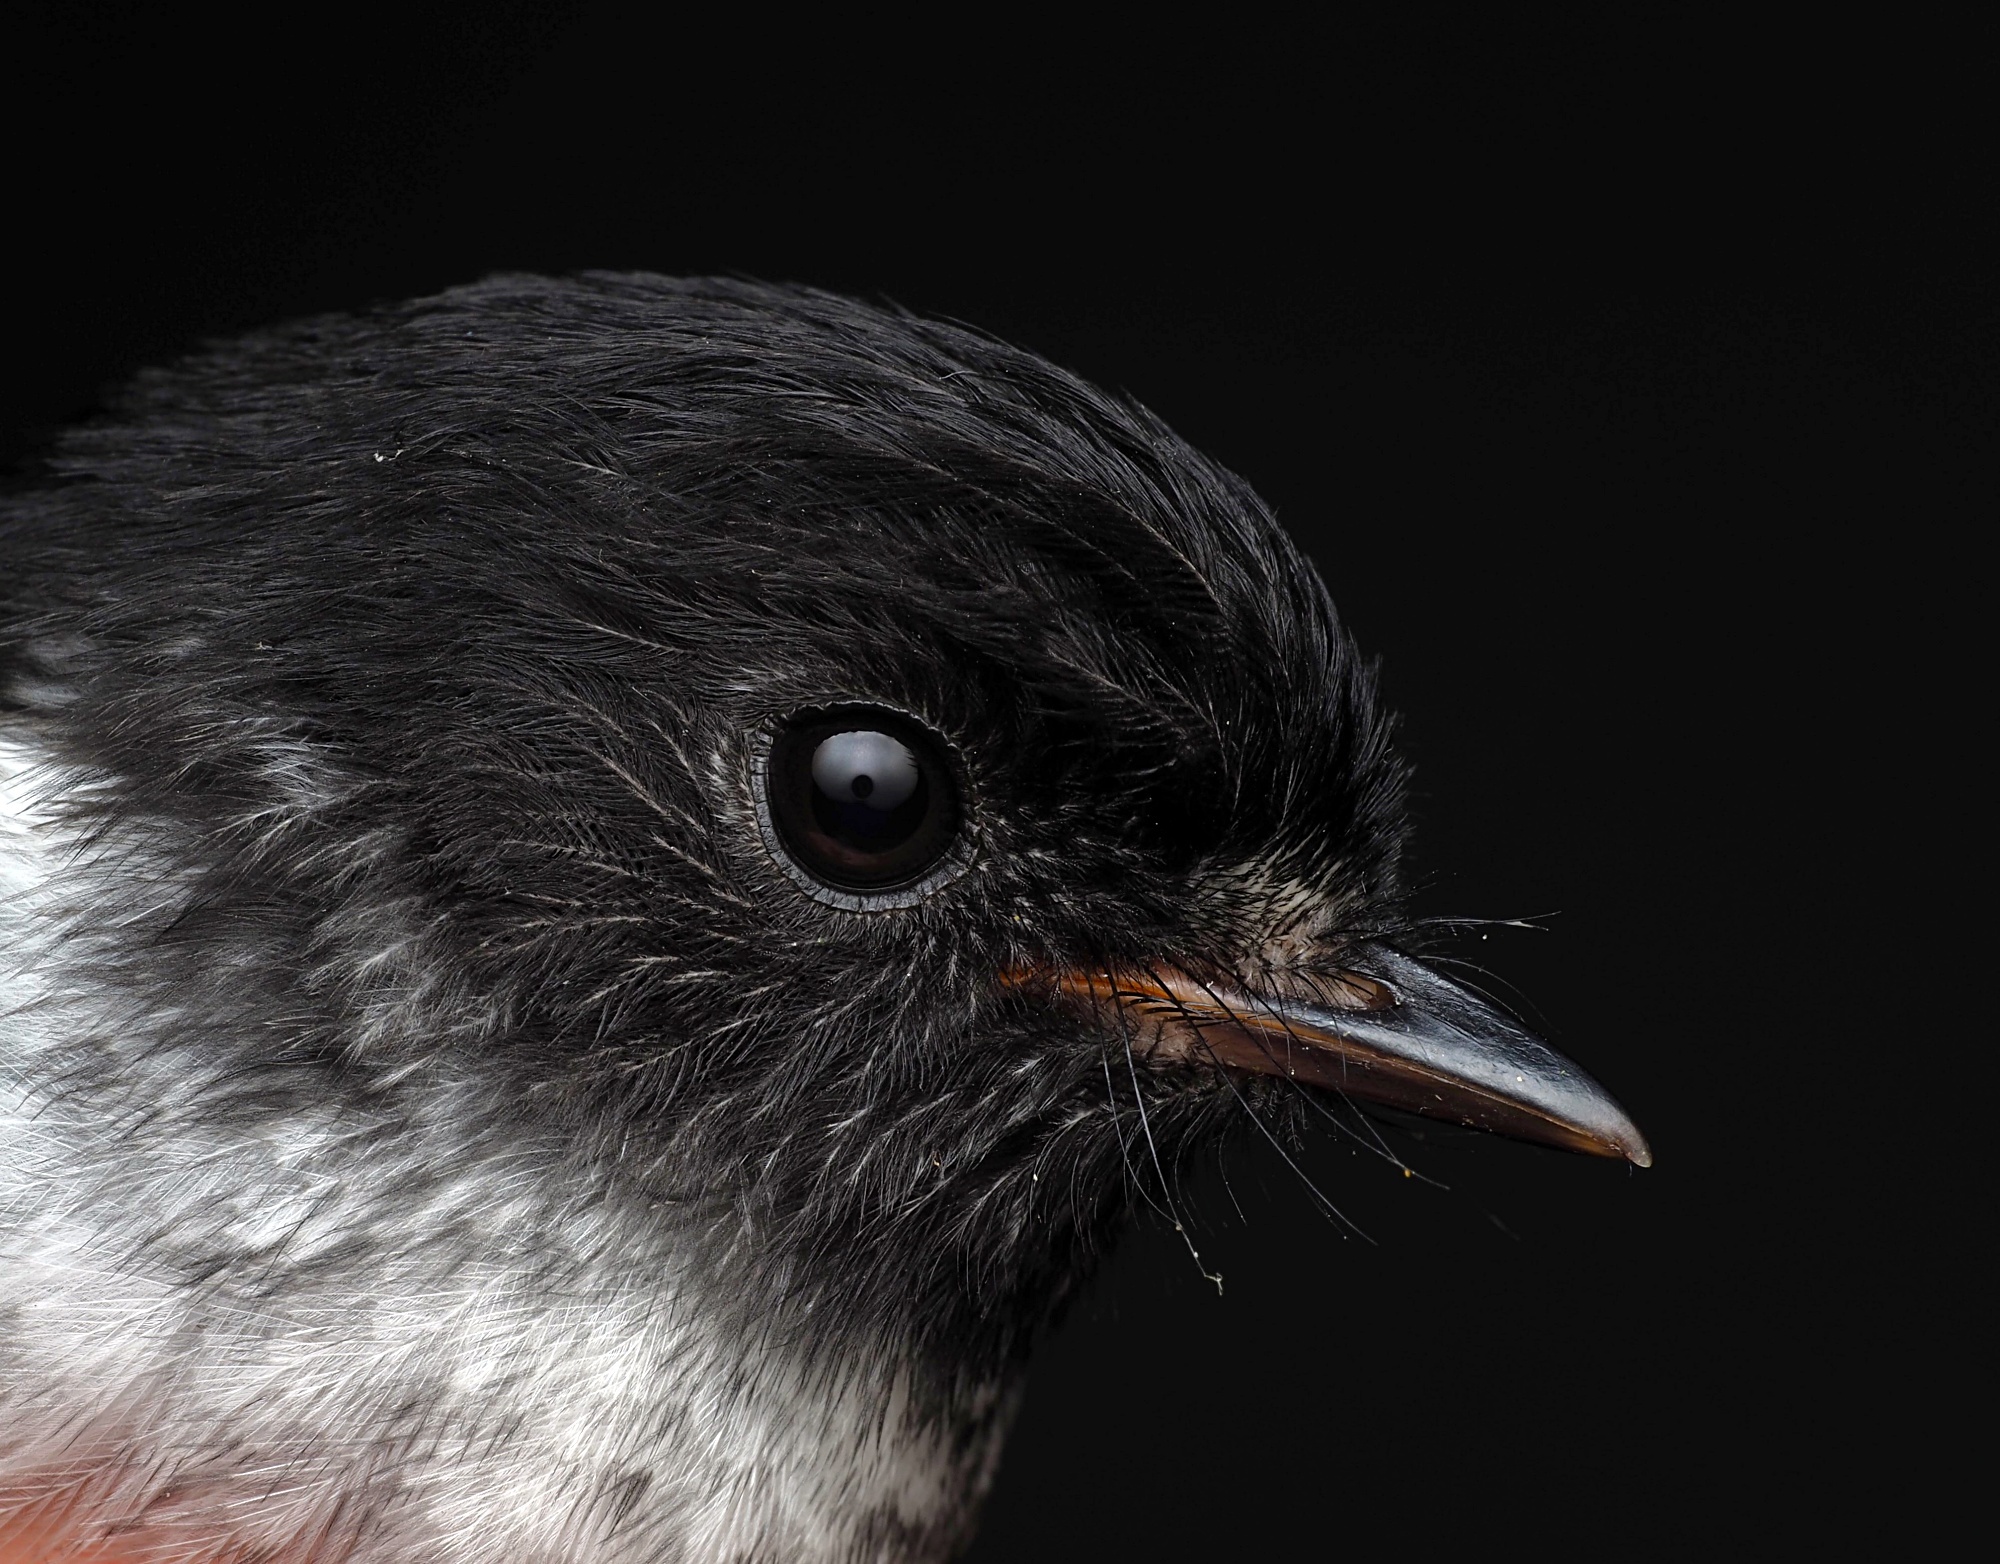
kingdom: Animalia
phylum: Chordata
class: Aves
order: Passeriformes
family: Petroicidae
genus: Petroica
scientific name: Petroica macrocephala
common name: Tomtit
